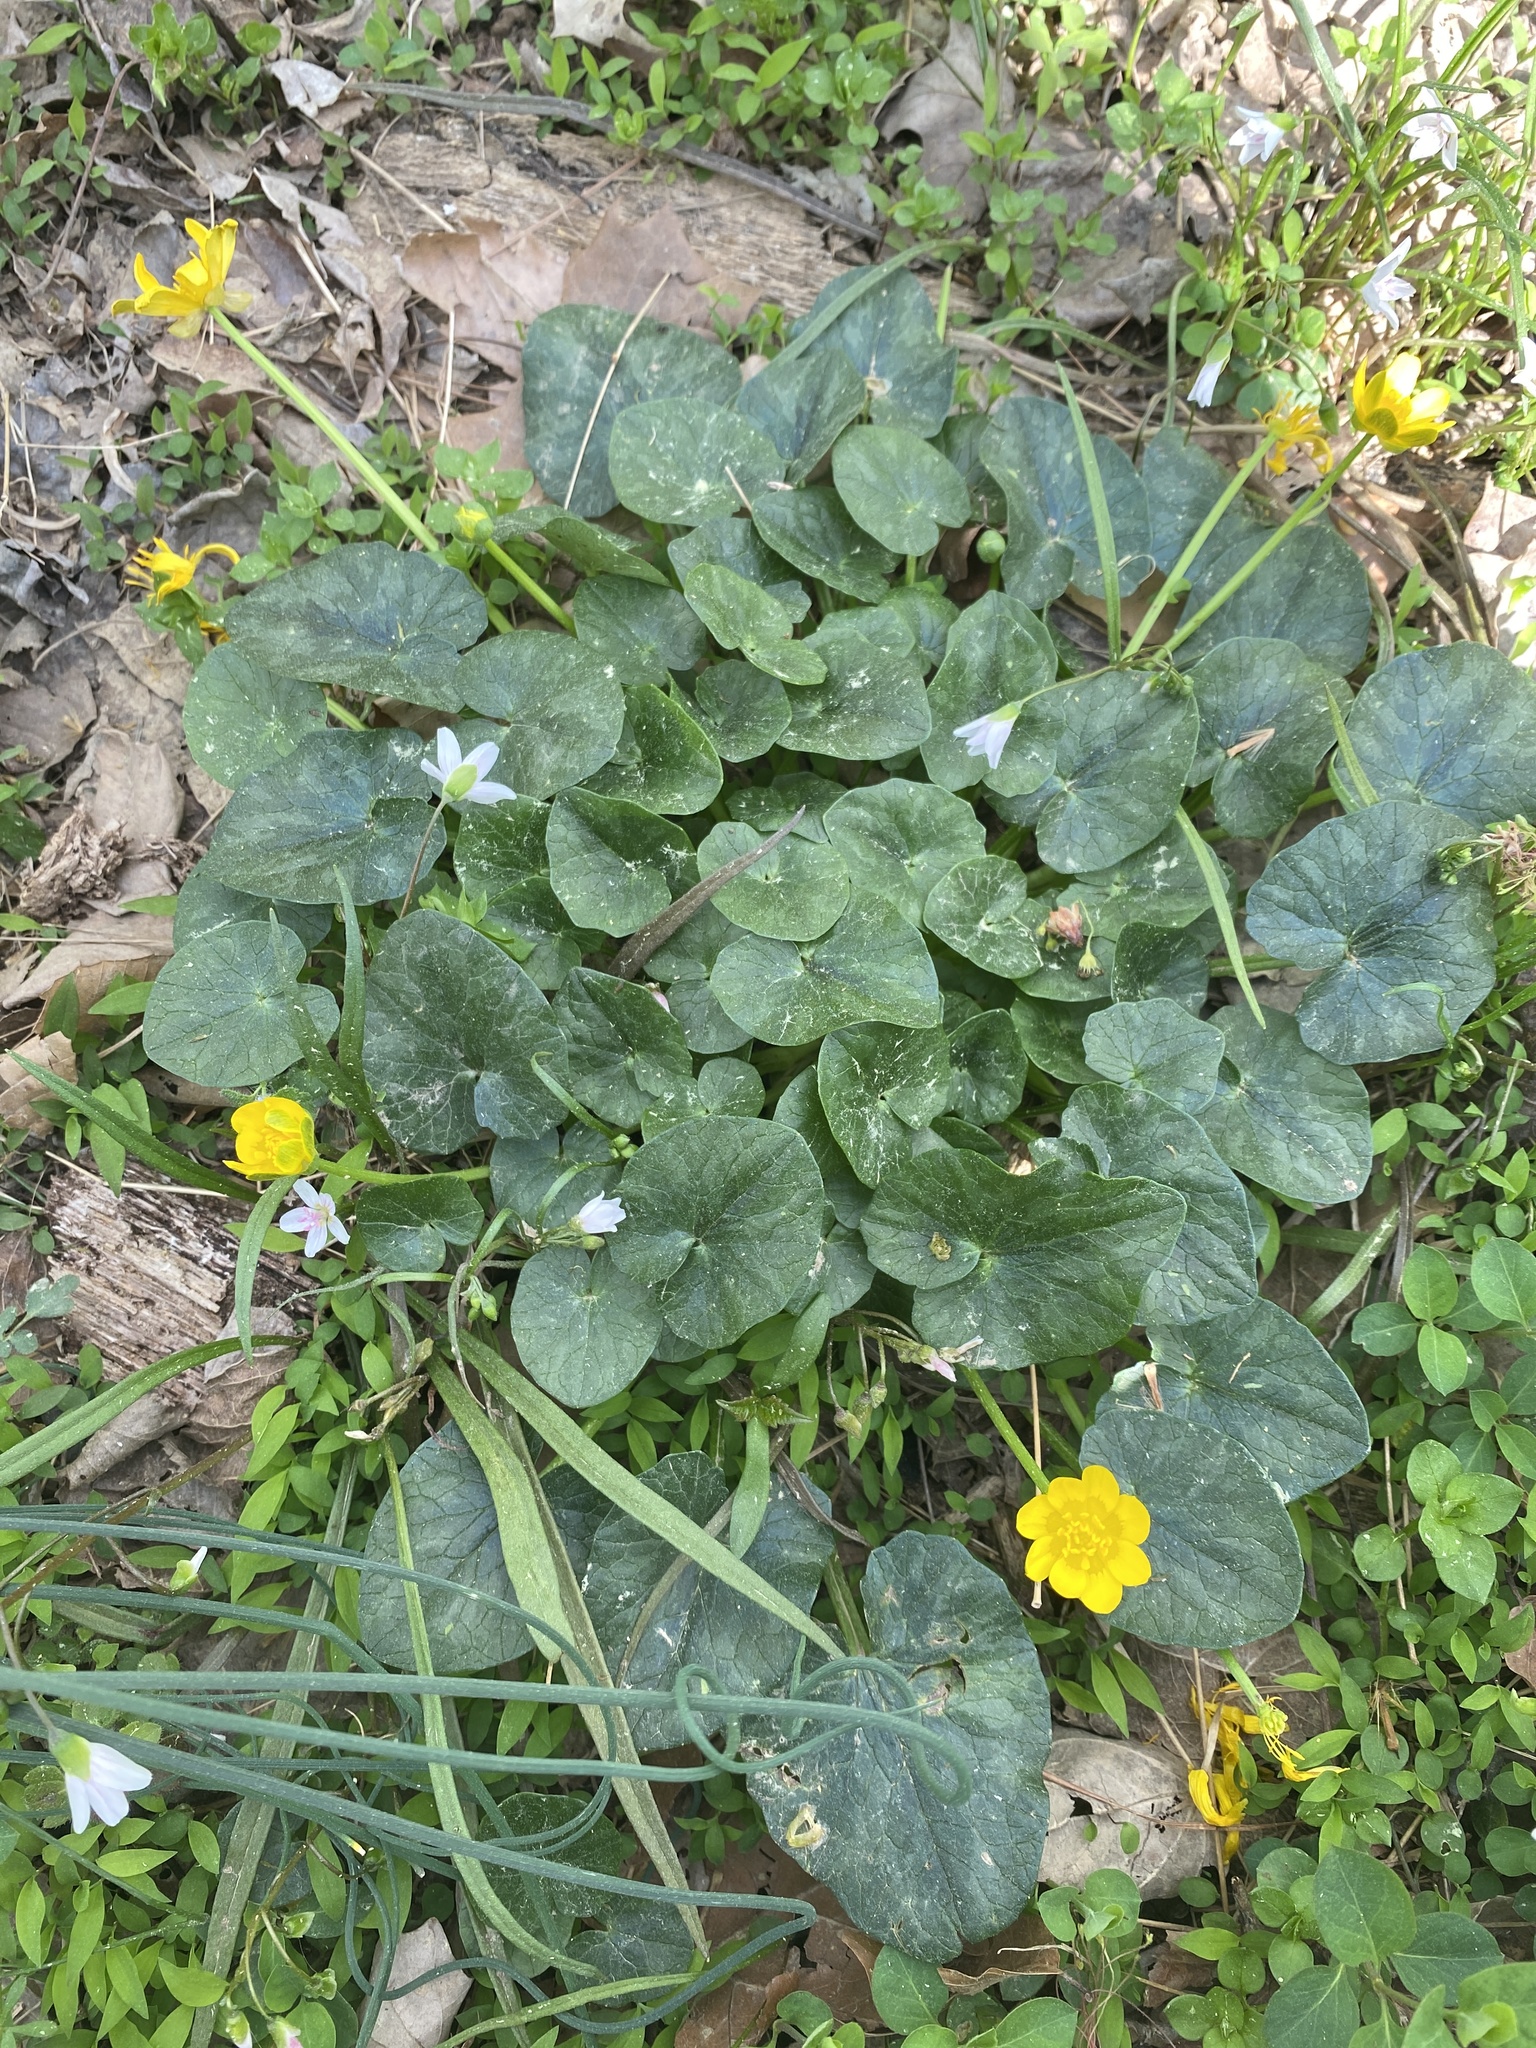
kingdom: Plantae
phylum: Tracheophyta
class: Magnoliopsida
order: Ranunculales
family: Ranunculaceae
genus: Ficaria
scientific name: Ficaria verna
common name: Lesser celandine
